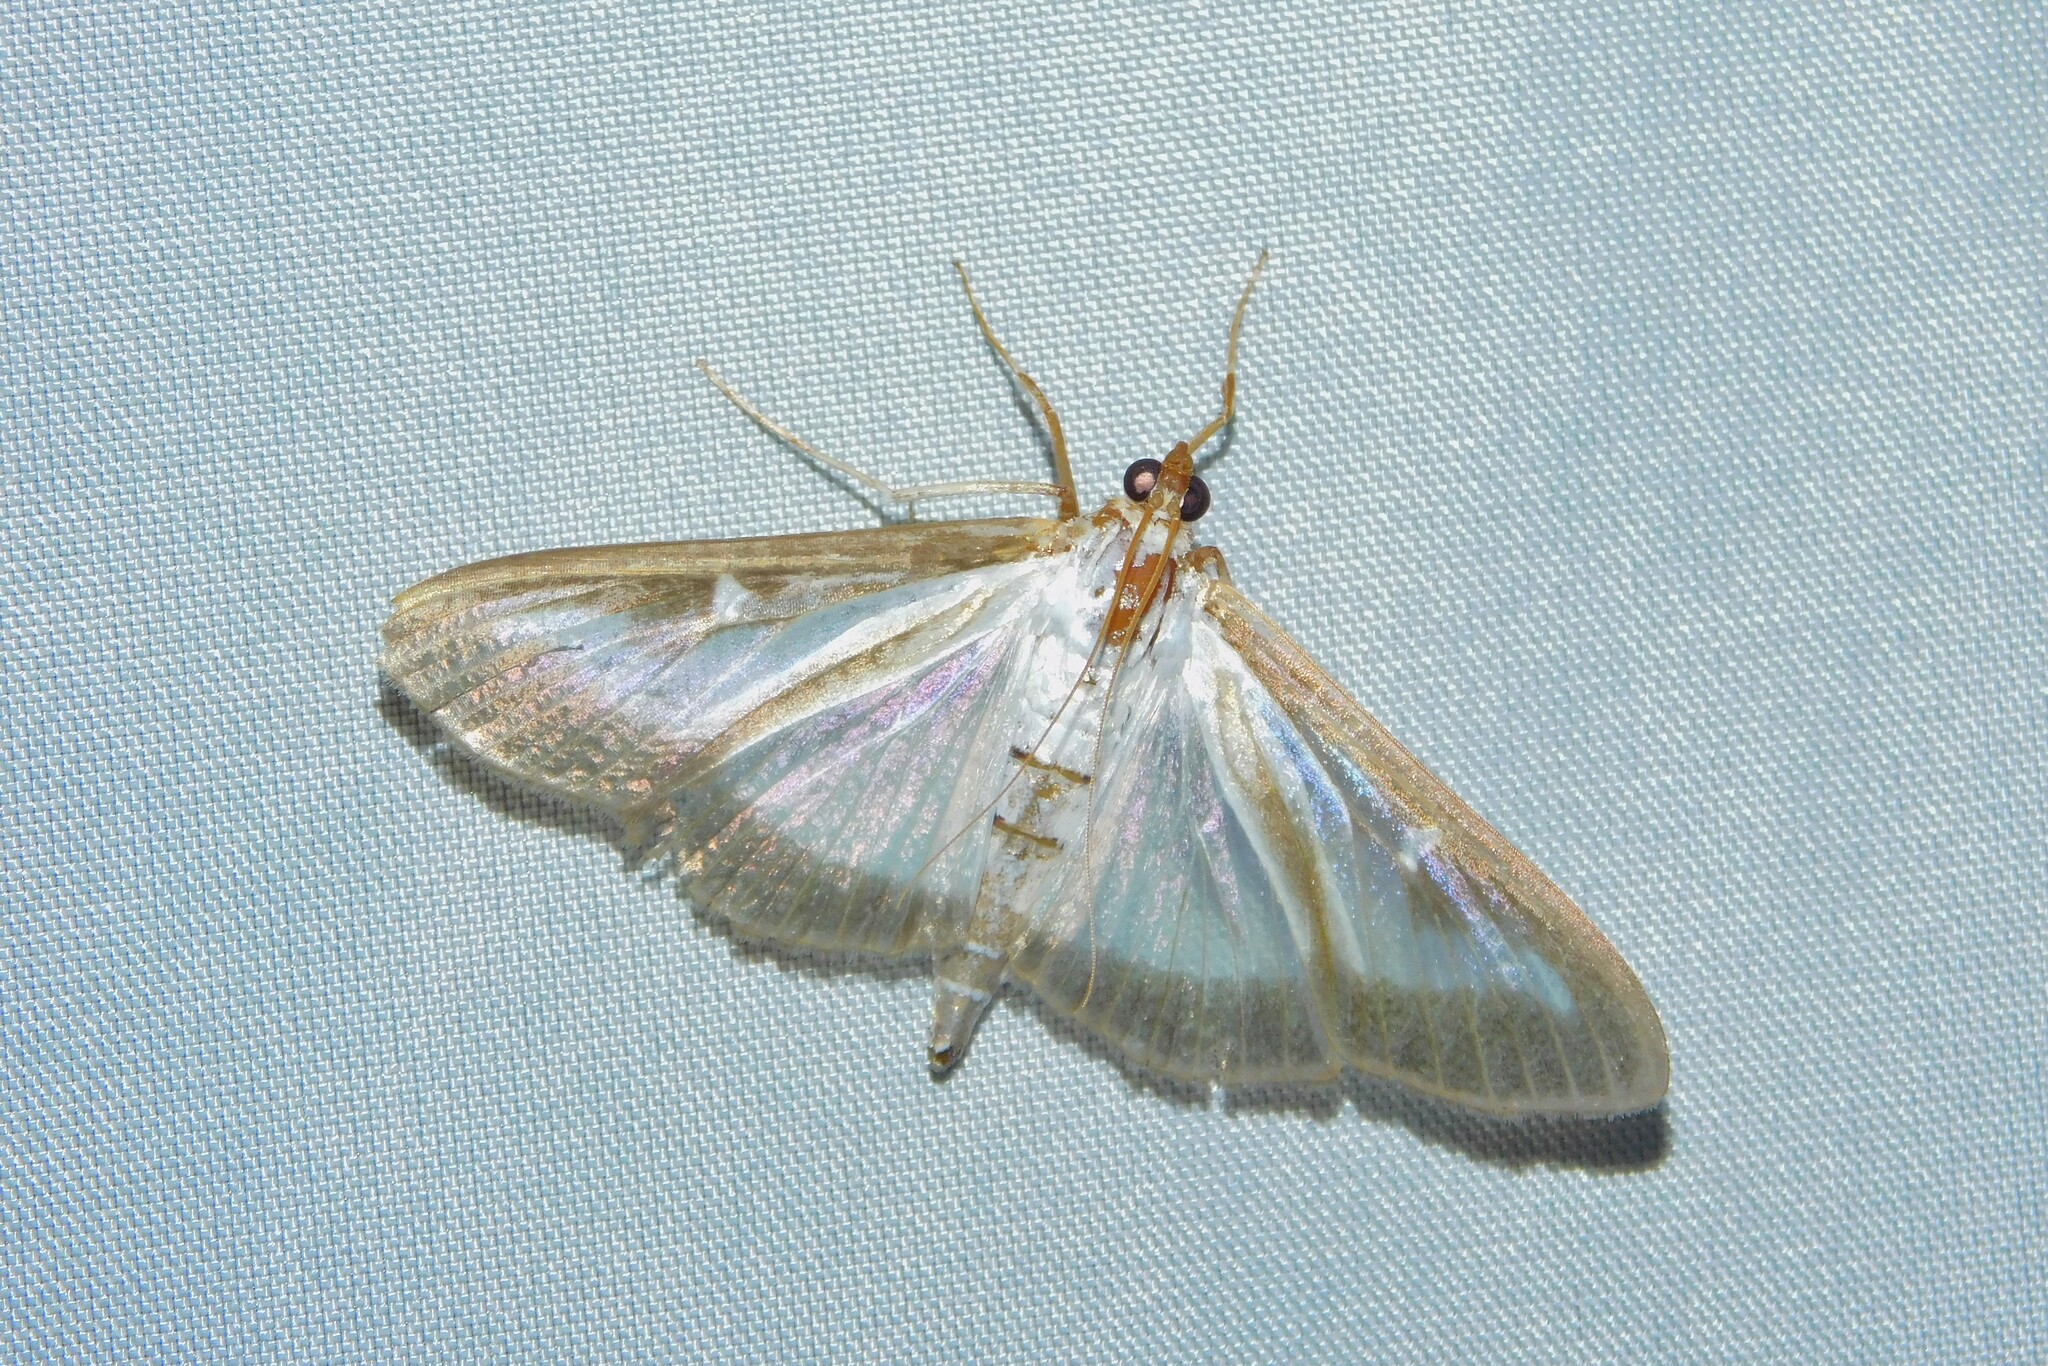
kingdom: Animalia
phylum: Arthropoda
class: Insecta
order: Lepidoptera
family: Crambidae
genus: Cydalima
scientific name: Cydalima perspectalis
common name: Box tree moth
